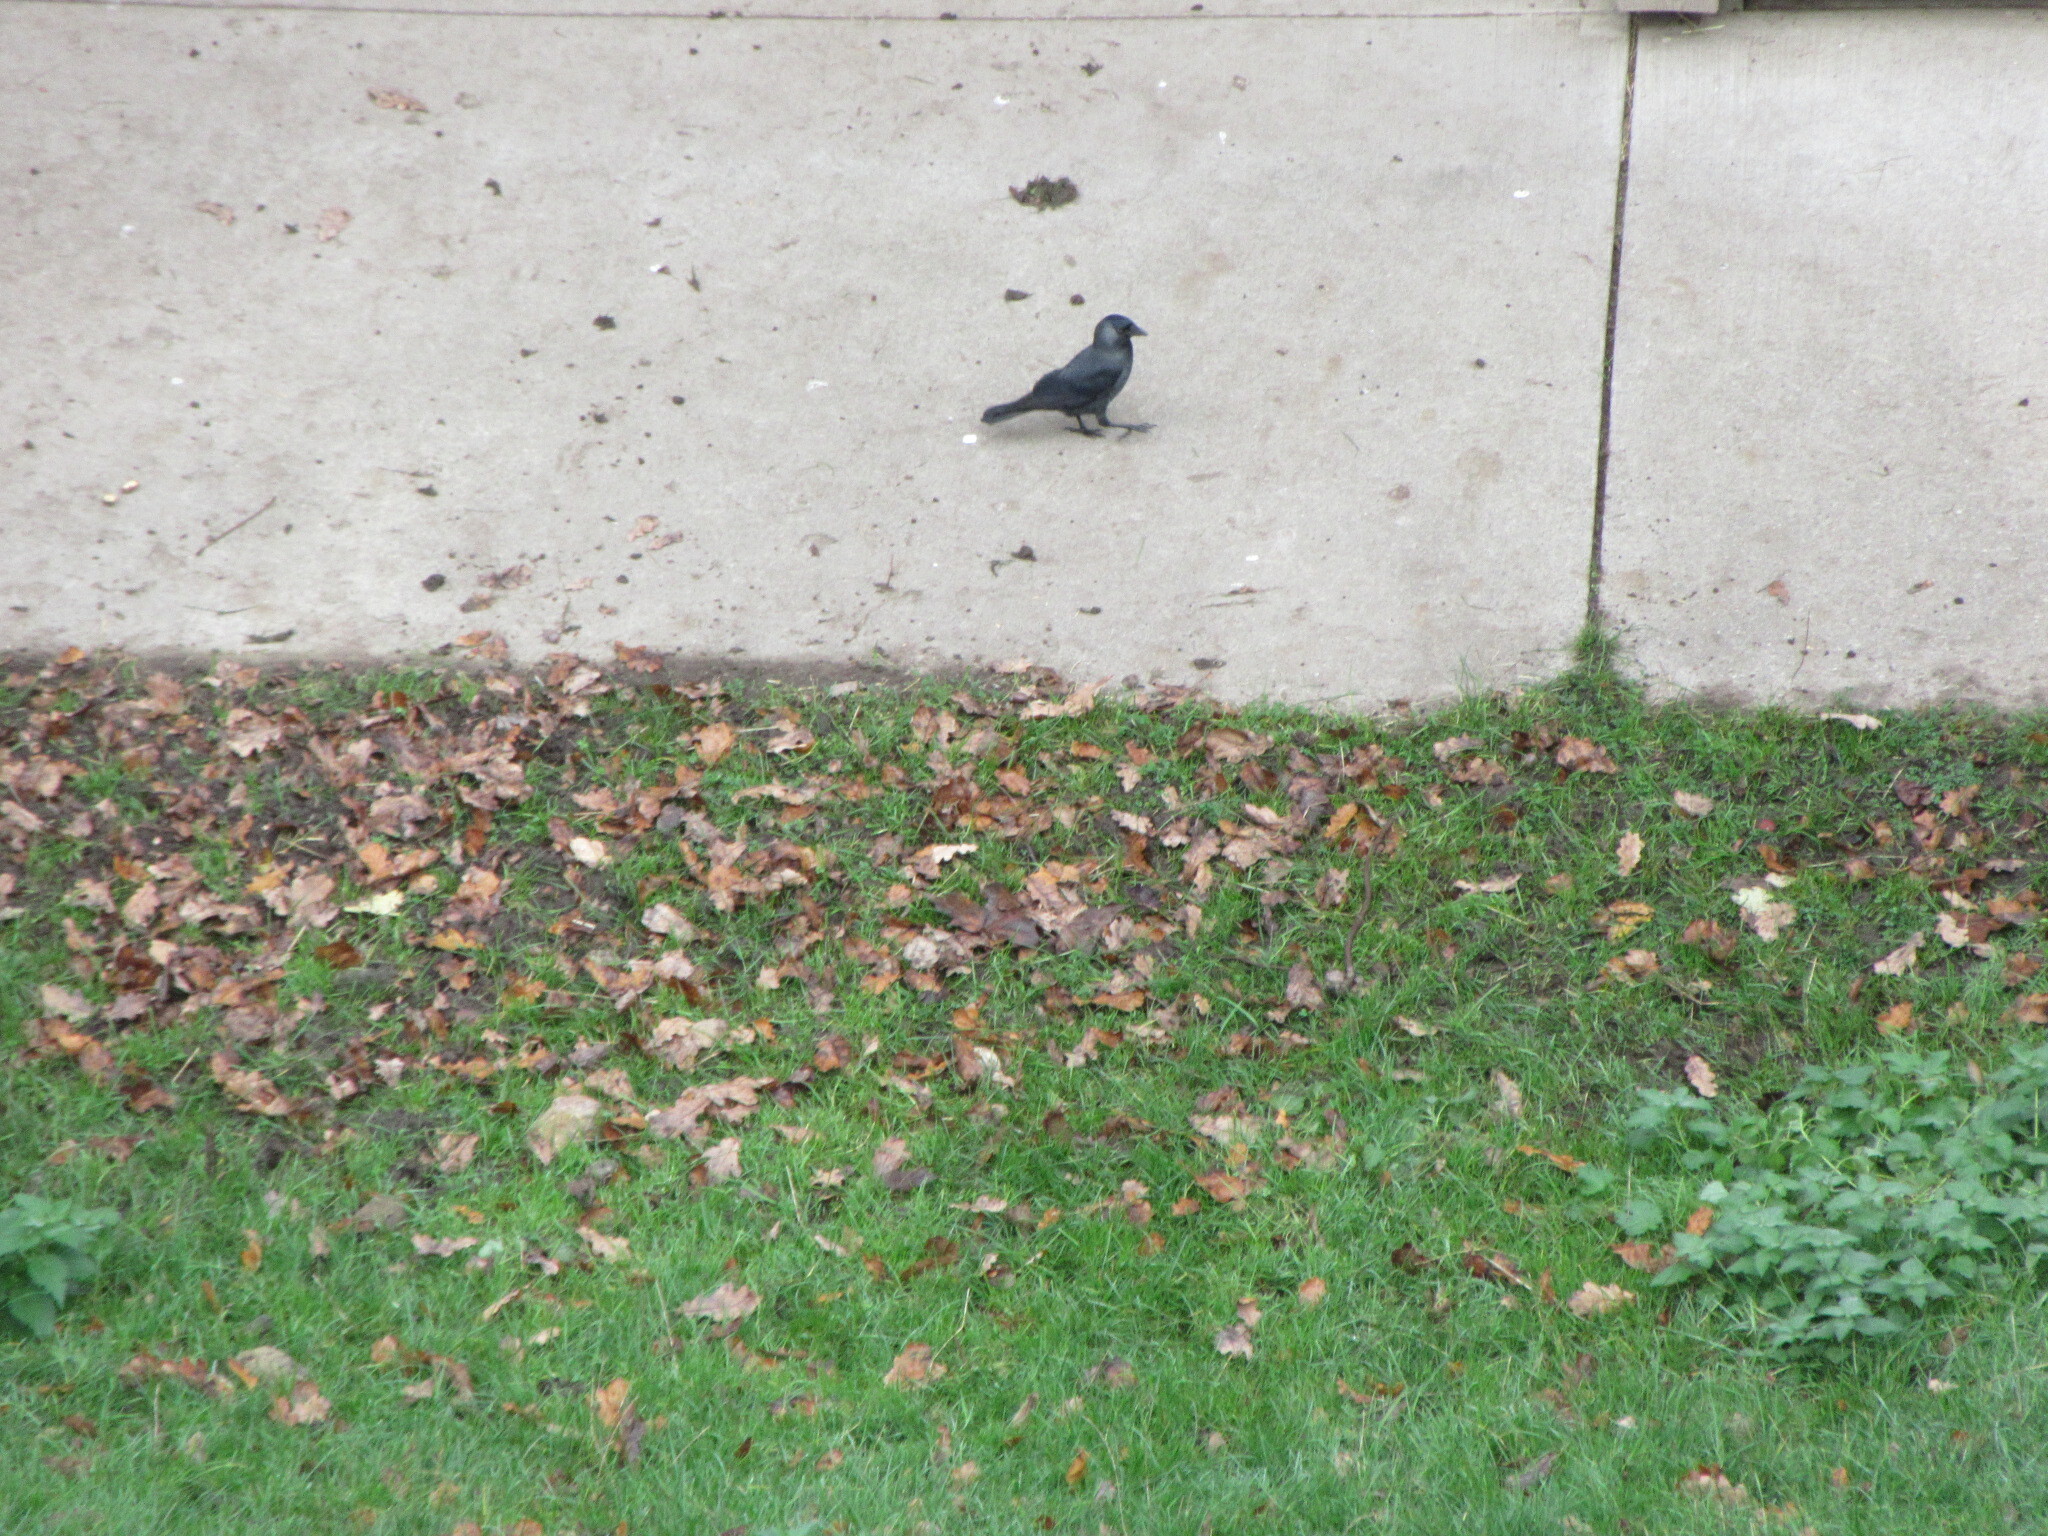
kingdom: Animalia
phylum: Chordata
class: Aves
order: Passeriformes
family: Corvidae
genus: Coloeus
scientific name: Coloeus monedula
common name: Western jackdaw
